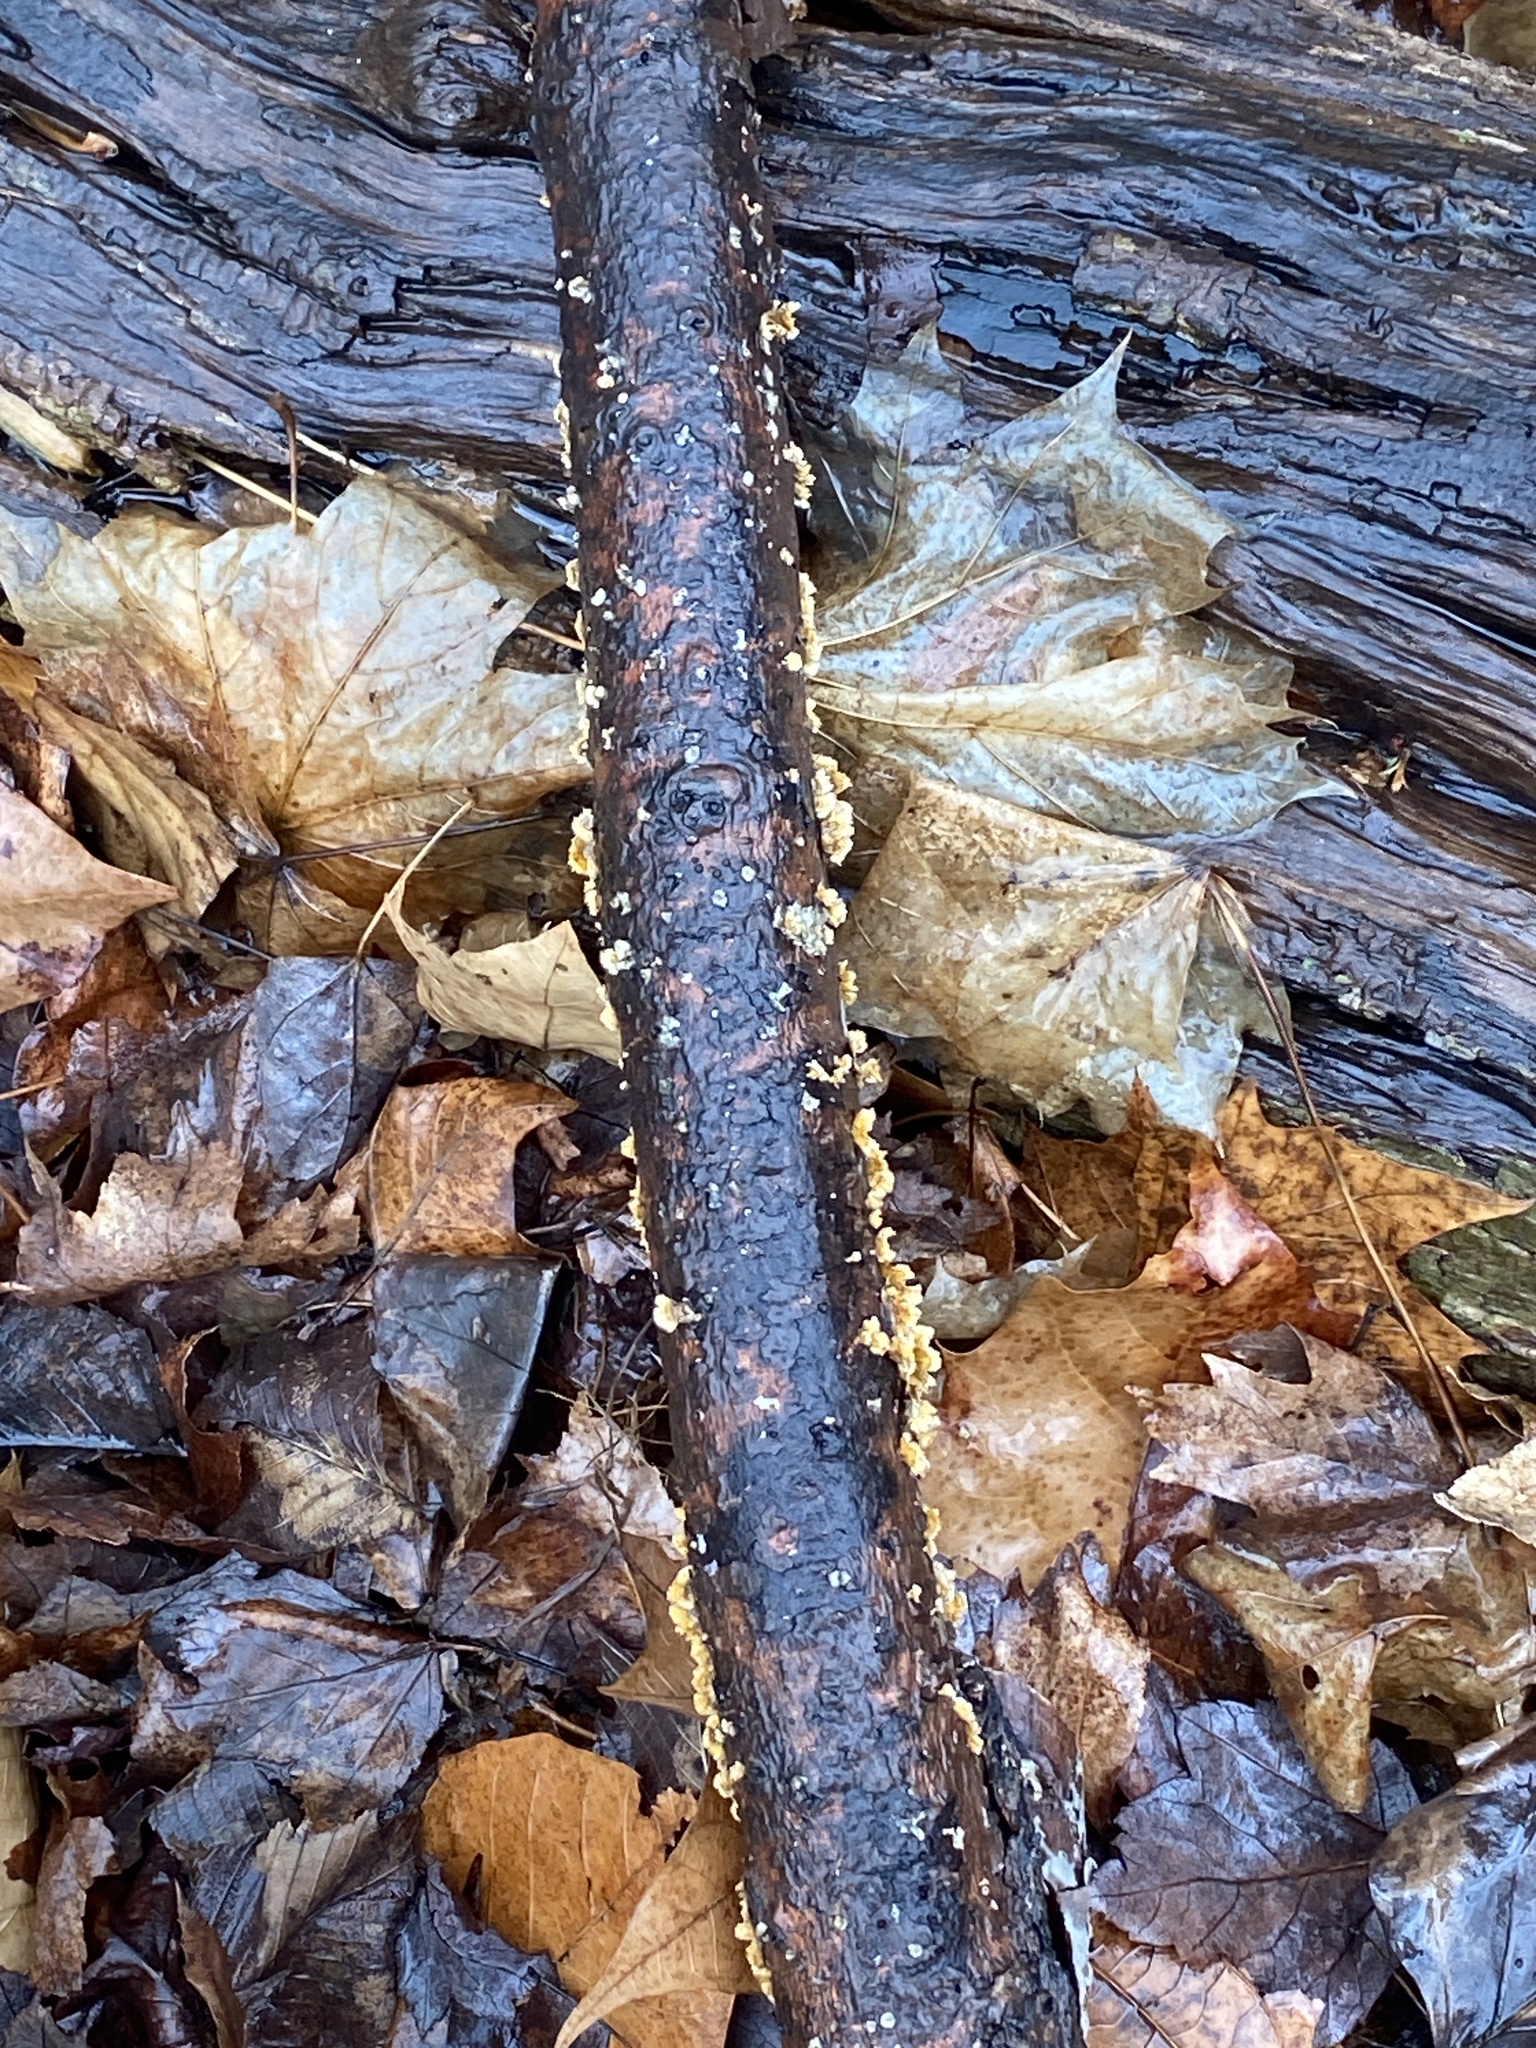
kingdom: Fungi
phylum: Basidiomycota
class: Agaricomycetes
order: Russulales
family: Stereaceae
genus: Stereum
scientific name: Stereum complicatum
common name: Crowded parchment
